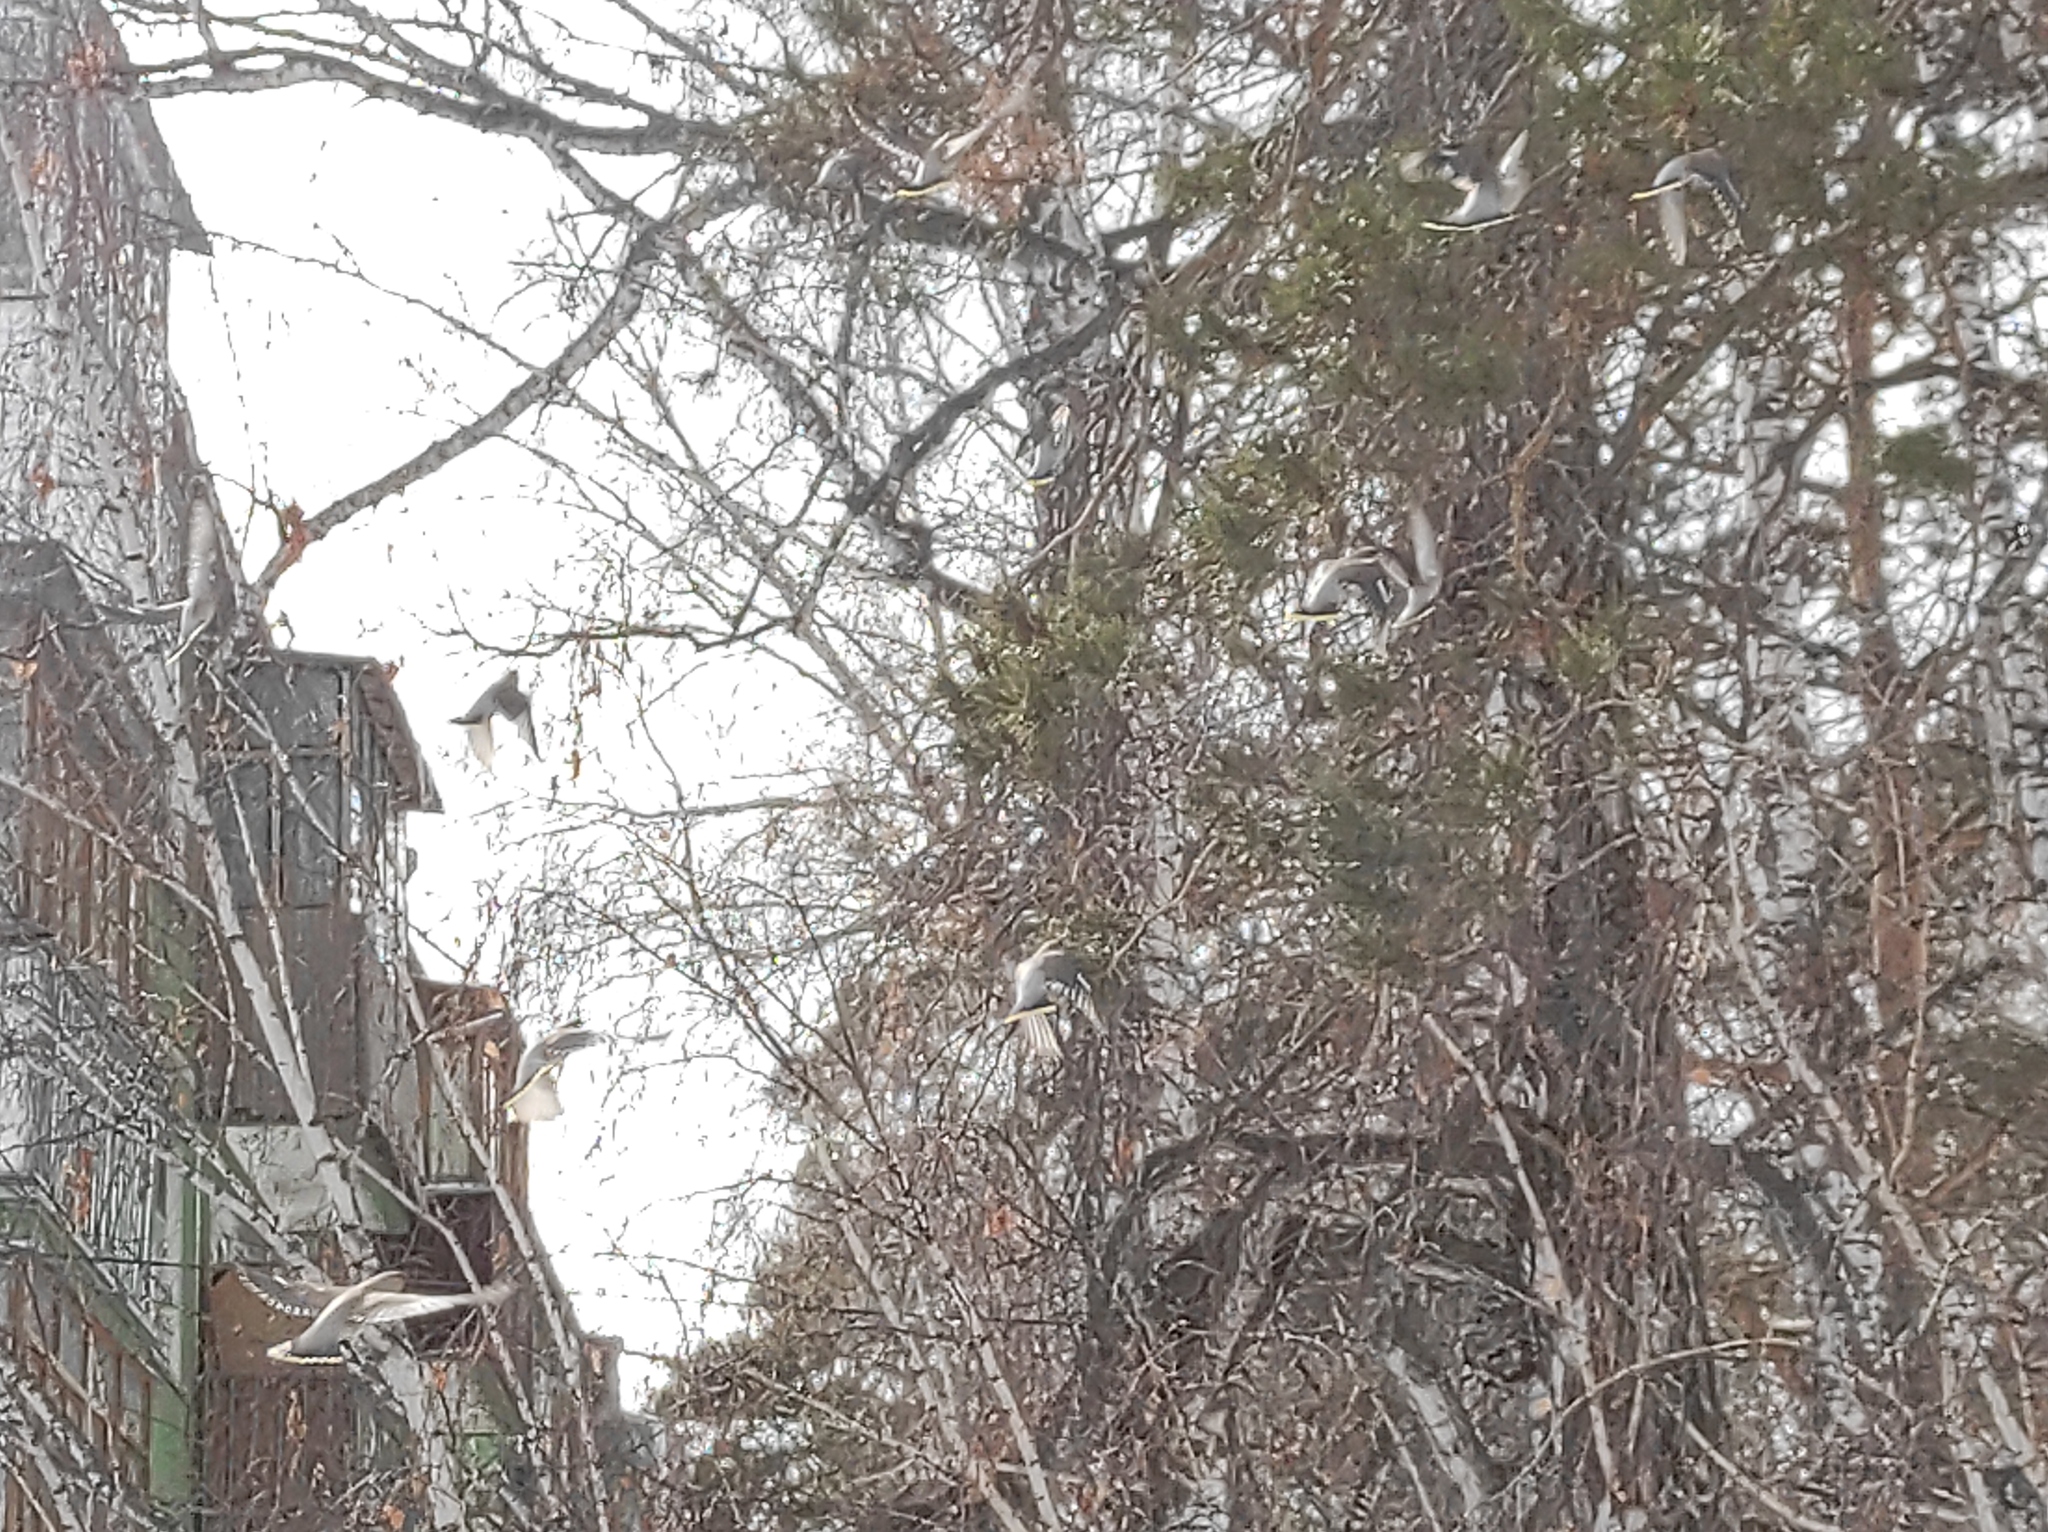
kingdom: Animalia
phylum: Chordata
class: Aves
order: Passeriformes
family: Bombycillidae
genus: Bombycilla
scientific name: Bombycilla garrulus
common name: Bohemian waxwing
